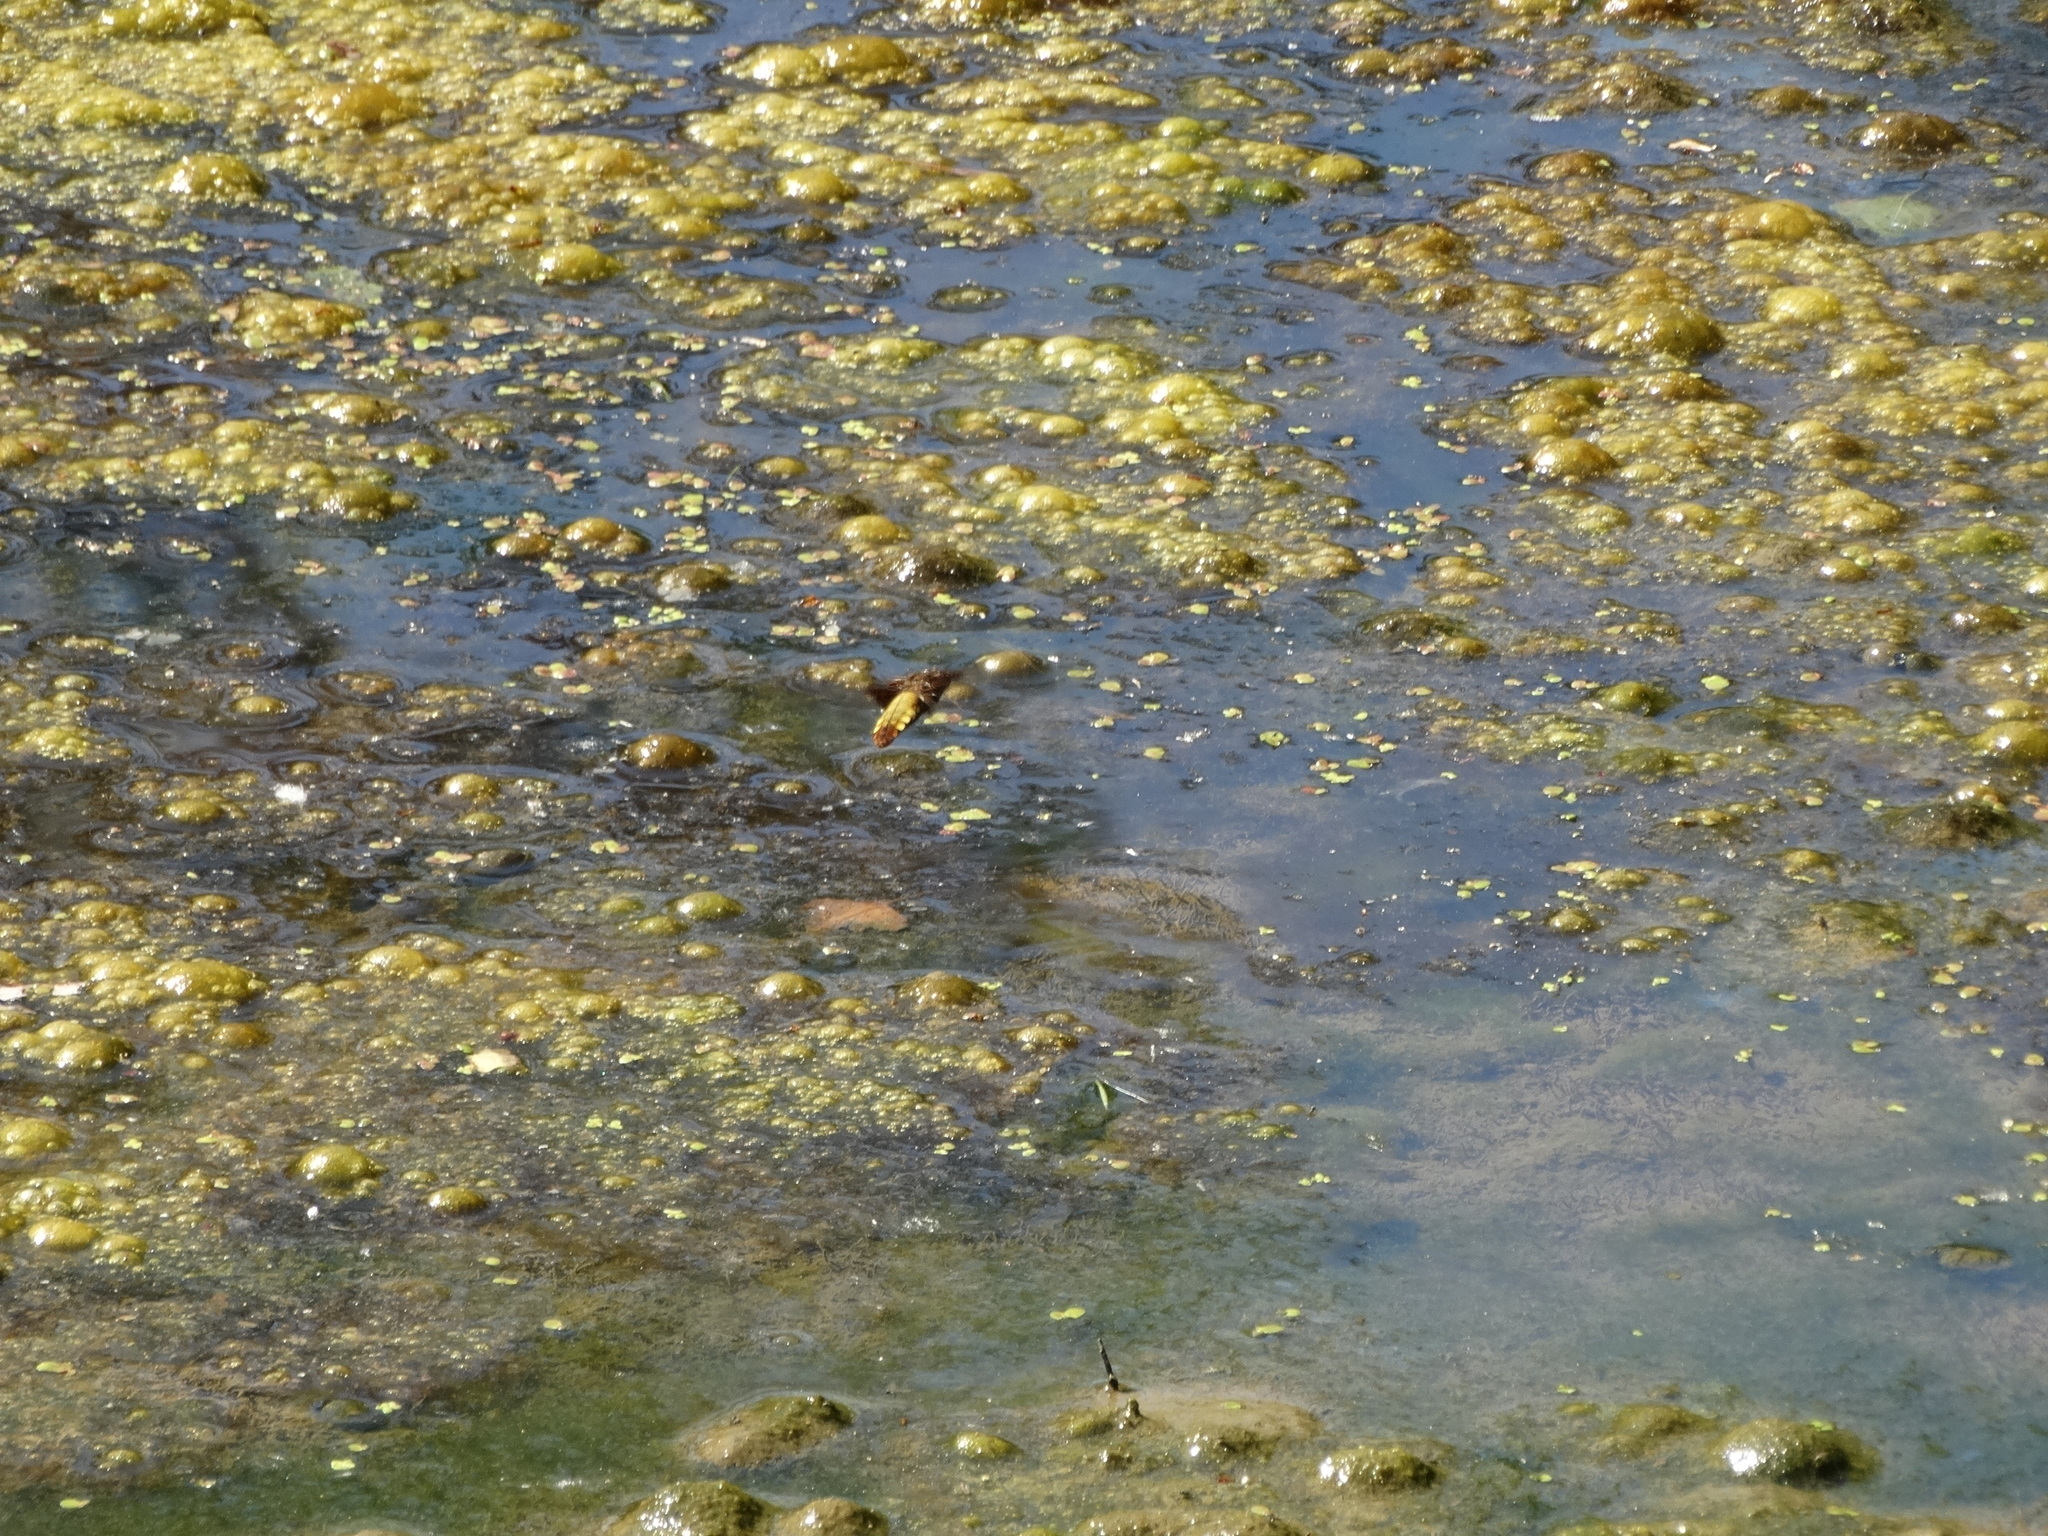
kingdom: Animalia
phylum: Arthropoda
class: Insecta
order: Odonata
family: Libellulidae
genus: Libellula
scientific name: Libellula depressa
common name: Broad-bodied chaser
